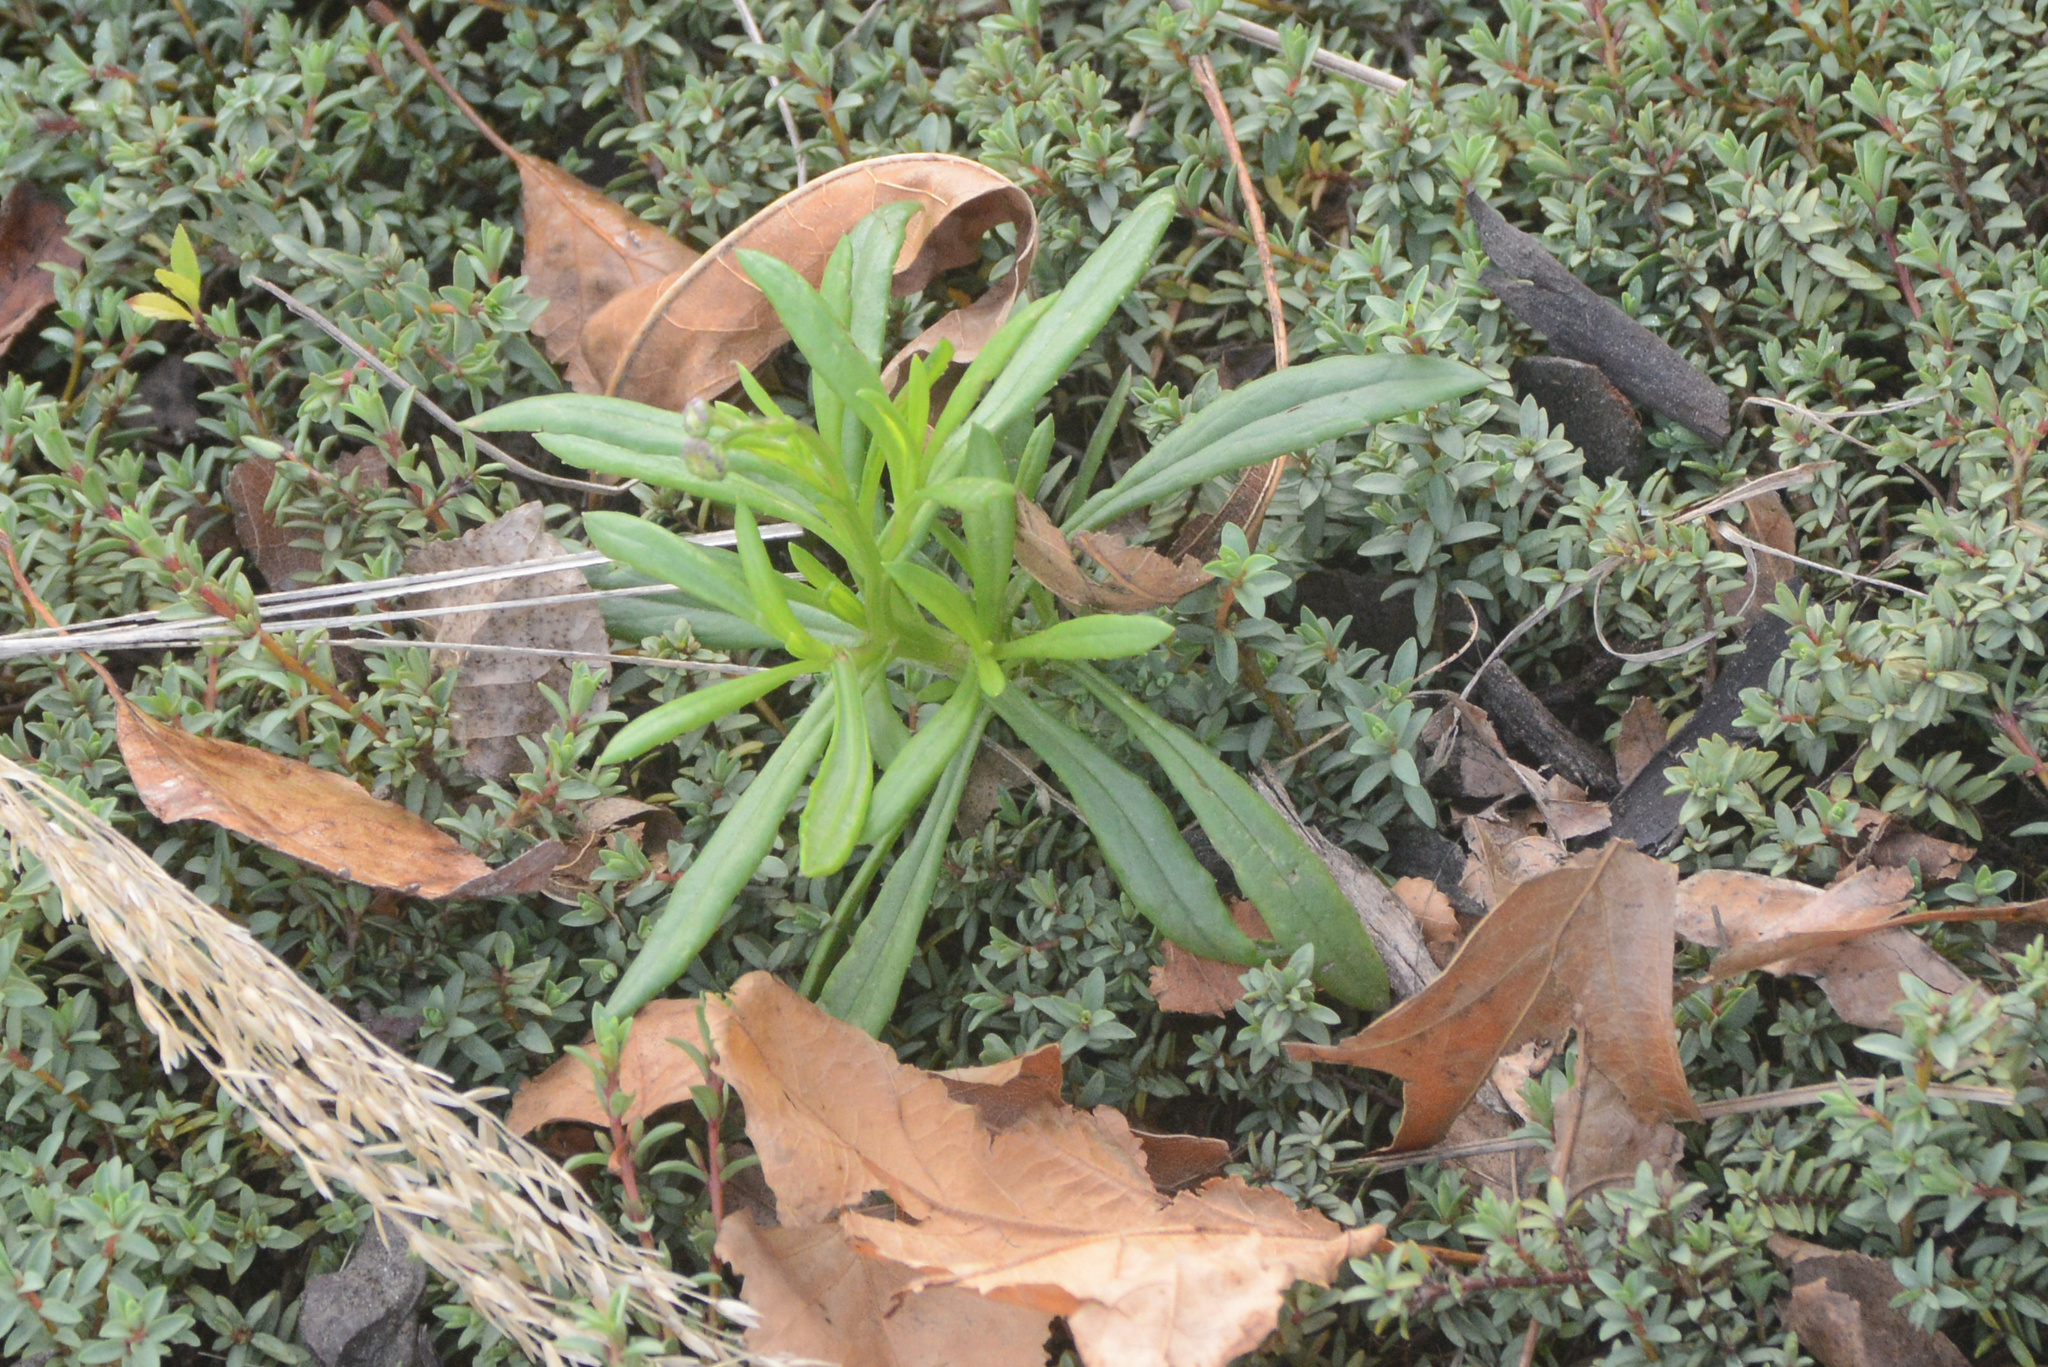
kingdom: Plantae
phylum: Tracheophyta
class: Magnoliopsida
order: Asterales
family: Asteraceae
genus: Senecio
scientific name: Senecio skirrhodon
